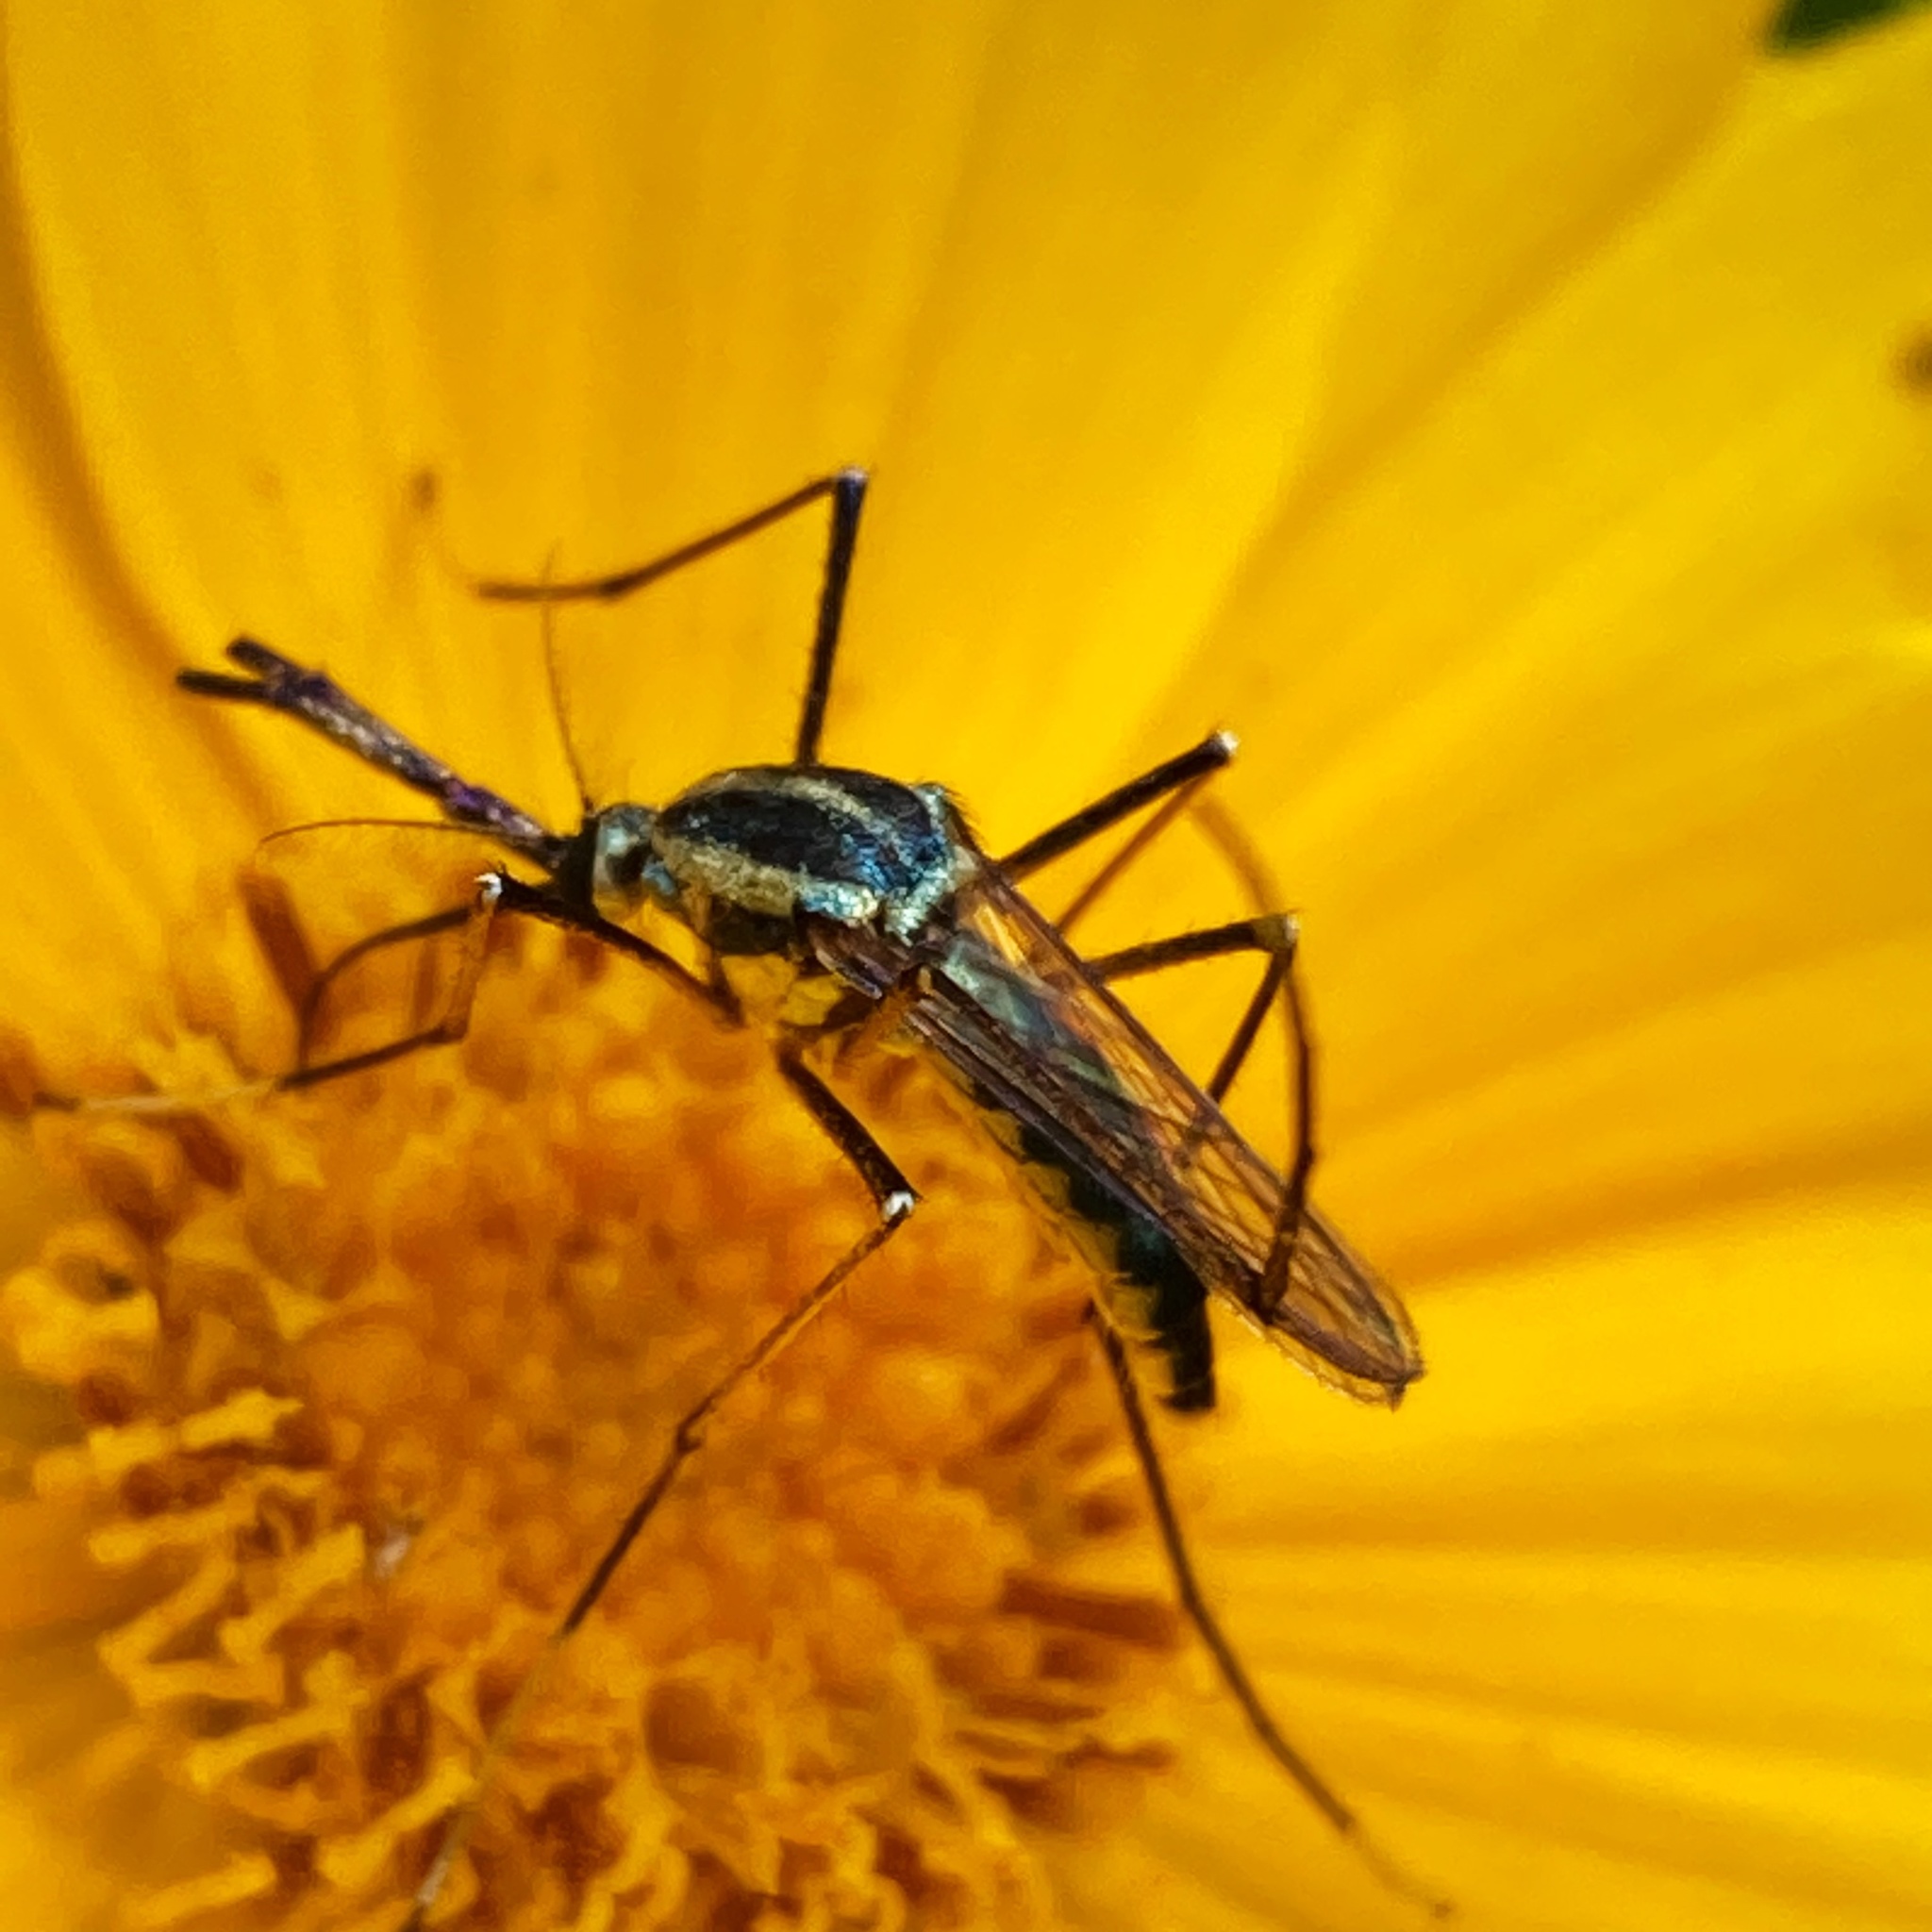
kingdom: Animalia
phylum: Arthropoda
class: Insecta
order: Diptera
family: Culicidae
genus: Toxorhynchites
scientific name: Toxorhynchites rutilus
